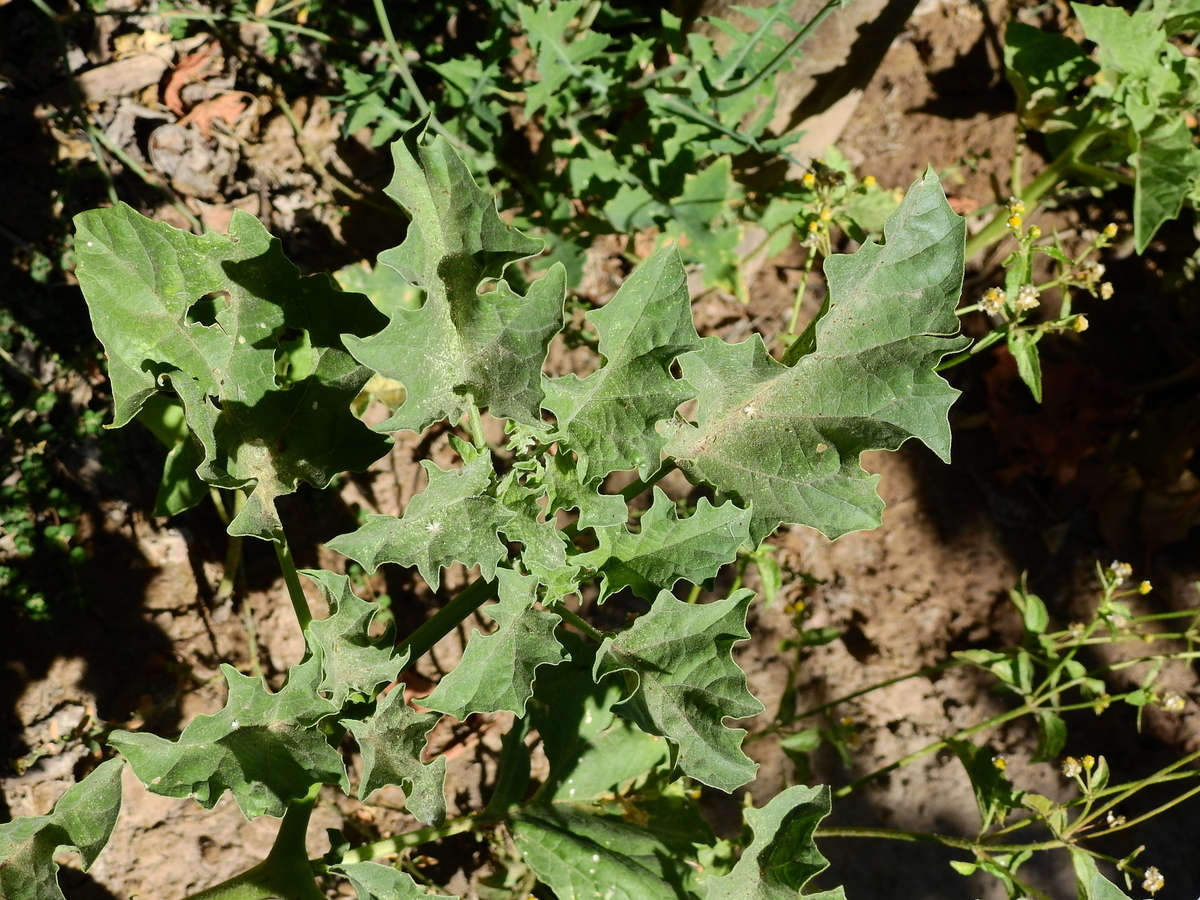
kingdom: Plantae
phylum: Tracheophyta
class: Magnoliopsida
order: Solanales
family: Solanaceae
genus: Datura
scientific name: Datura ferox
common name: Angel's-trumpets
